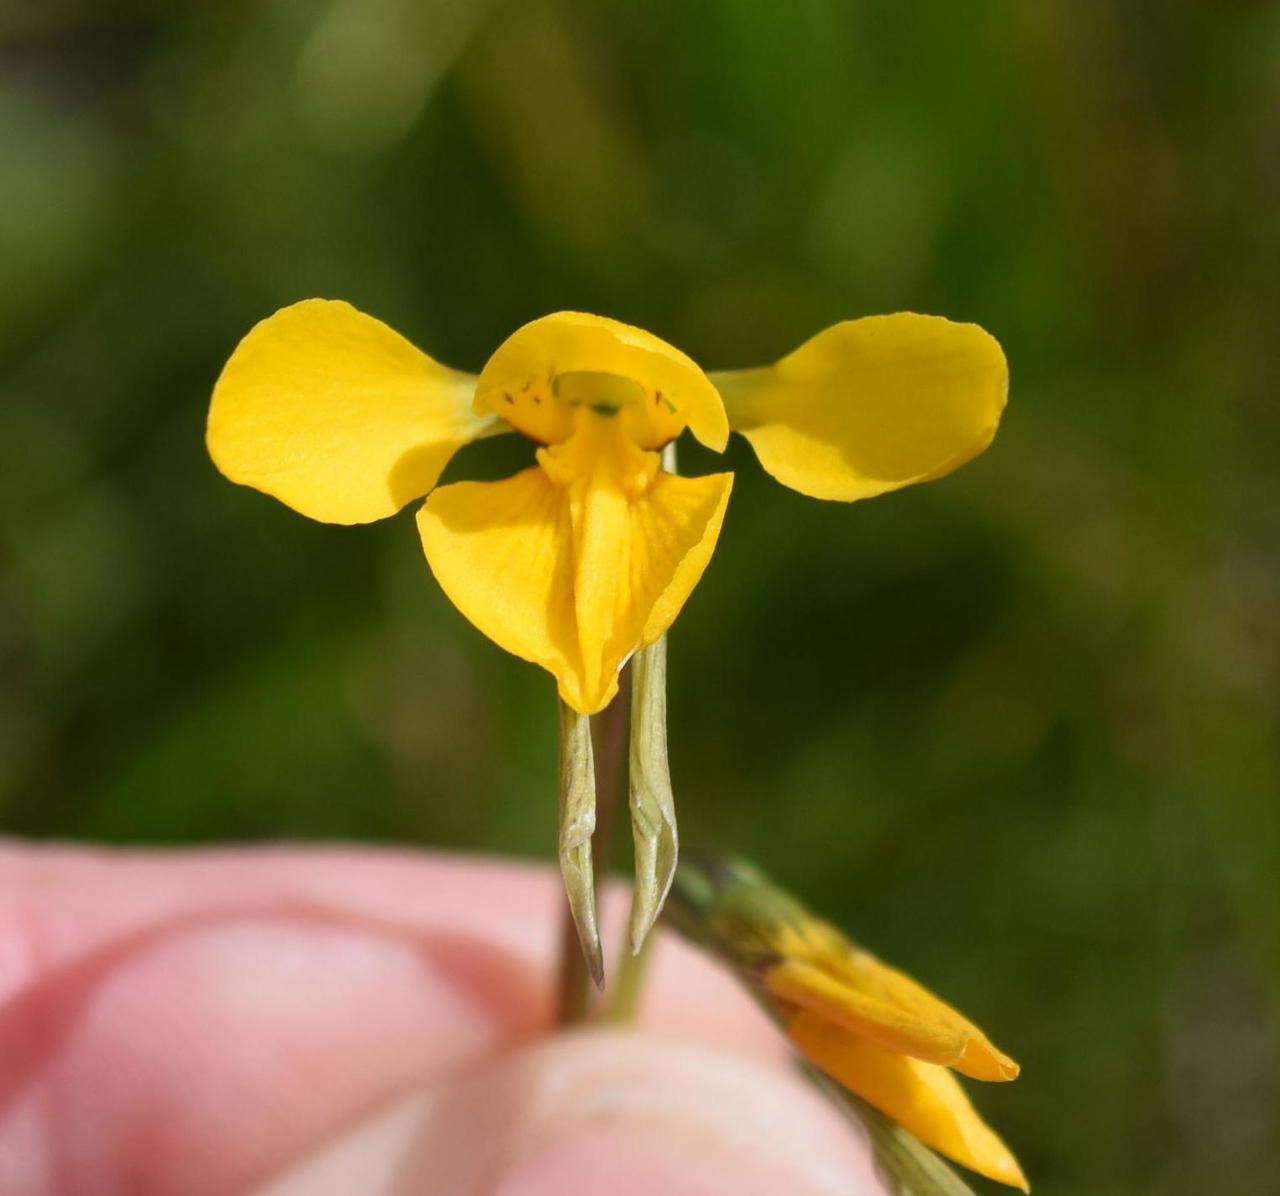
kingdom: Plantae
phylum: Tracheophyta
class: Liliopsida
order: Asparagales
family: Orchidaceae
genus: Diuris
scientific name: Diuris chryseopsis
